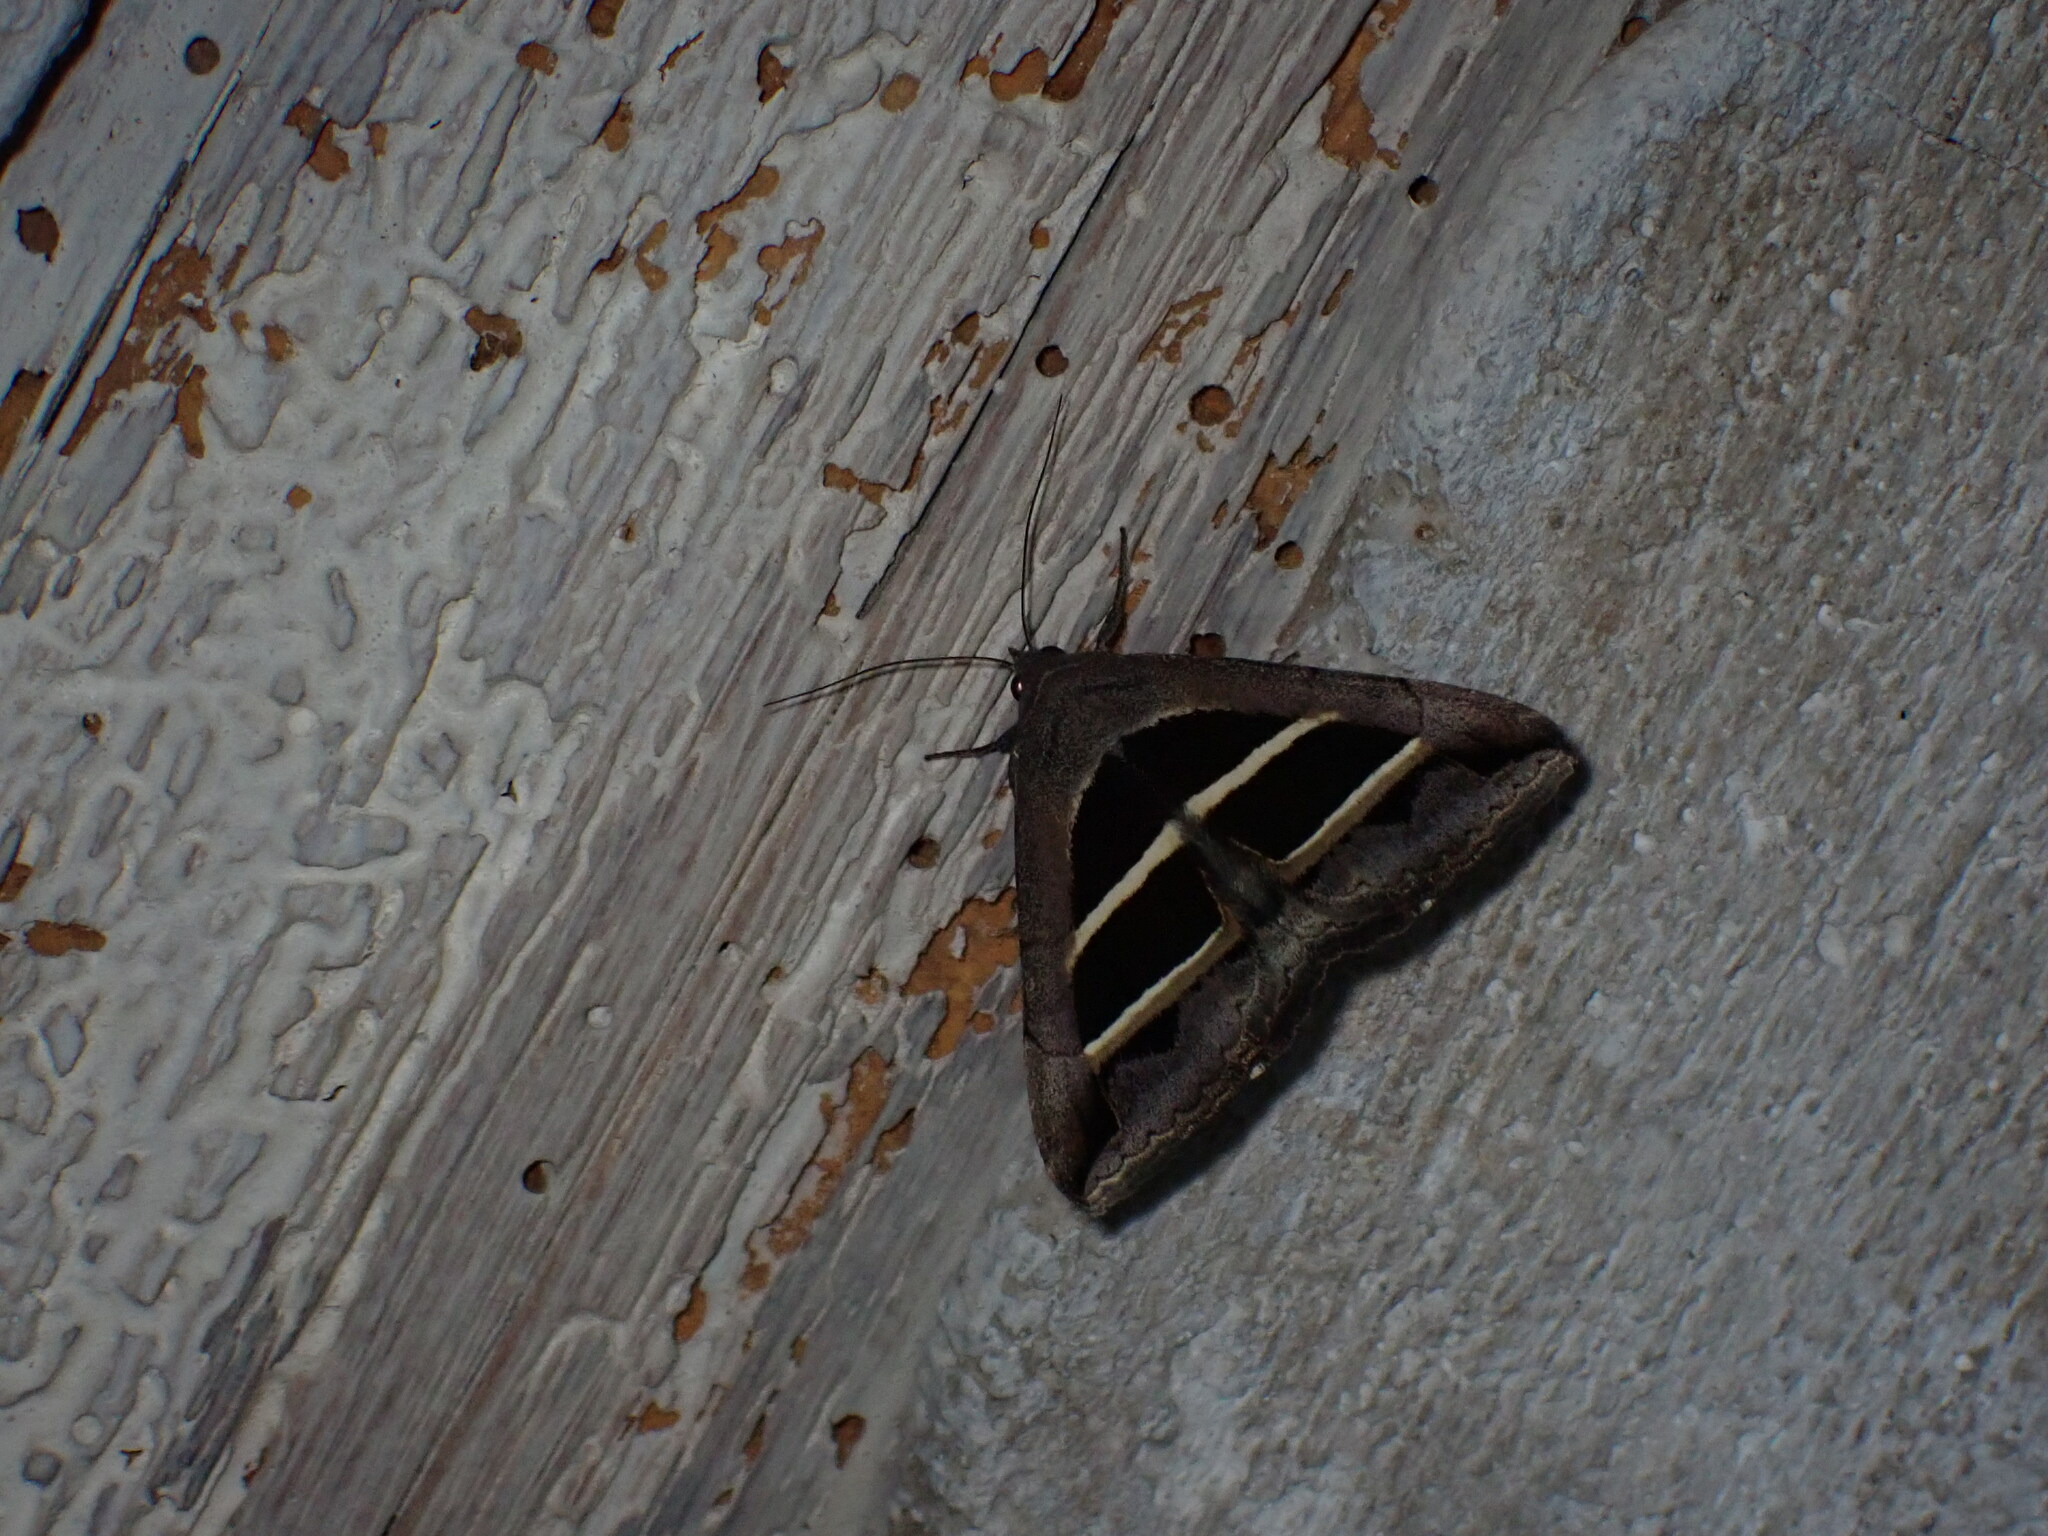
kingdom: Animalia
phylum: Arthropoda
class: Insecta
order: Lepidoptera
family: Erebidae
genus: Grammodes
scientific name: Grammodes bifasciata
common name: Parallel lines
